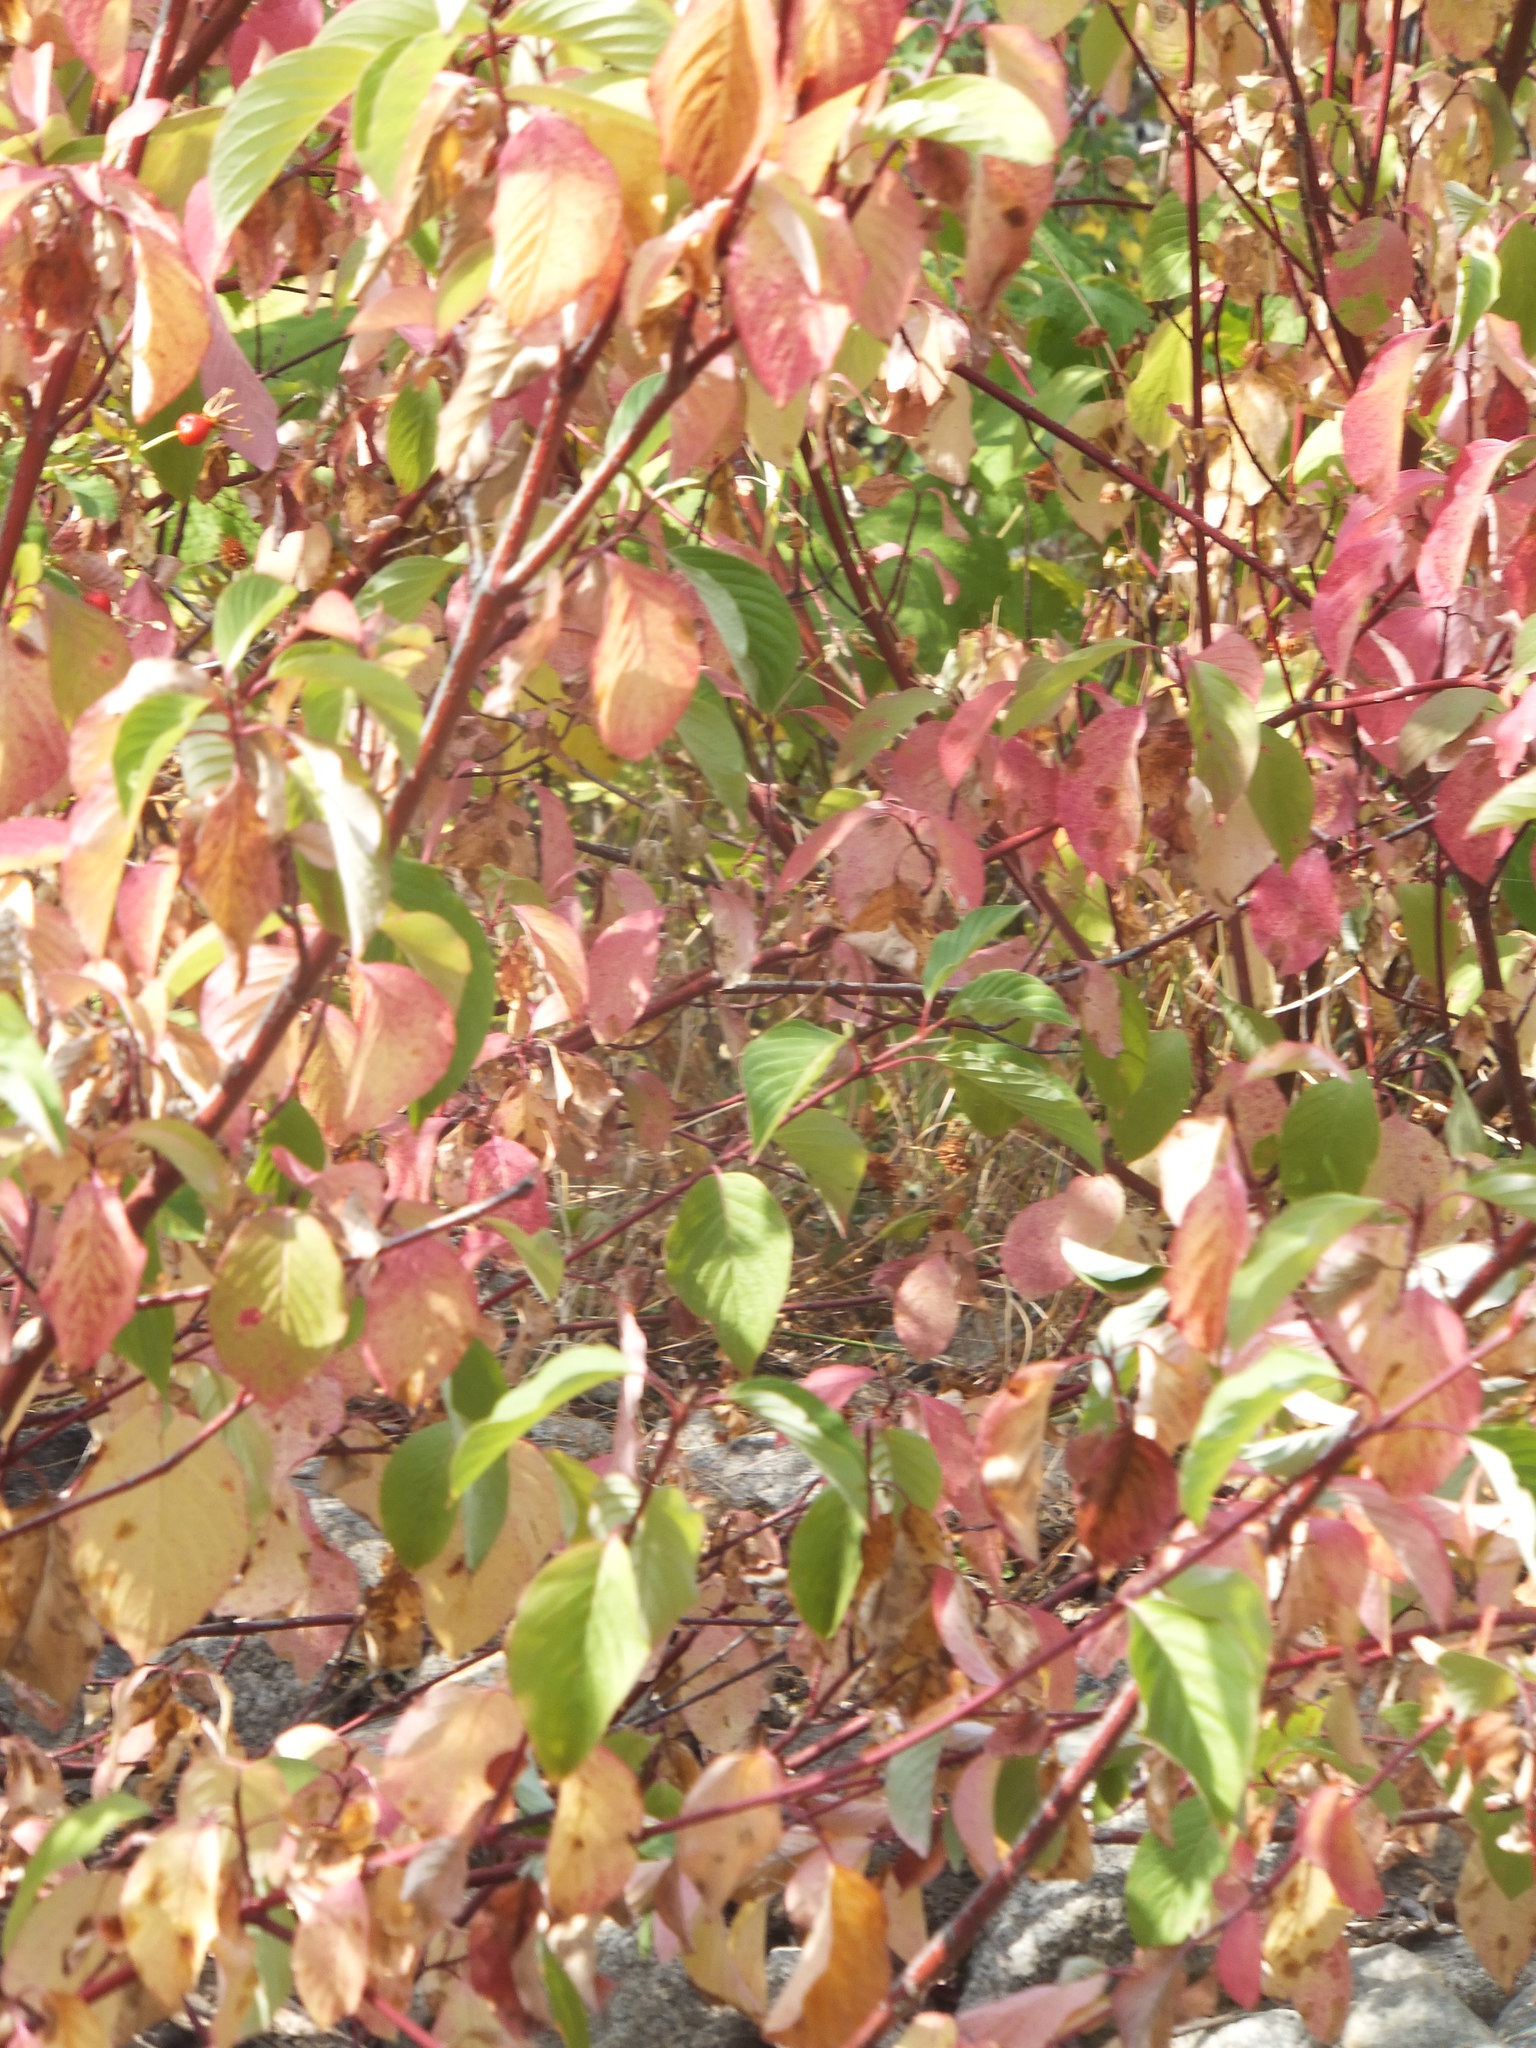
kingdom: Plantae
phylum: Tracheophyta
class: Magnoliopsida
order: Cornales
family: Cornaceae
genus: Cornus
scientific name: Cornus sericea
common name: Red-osier dogwood
